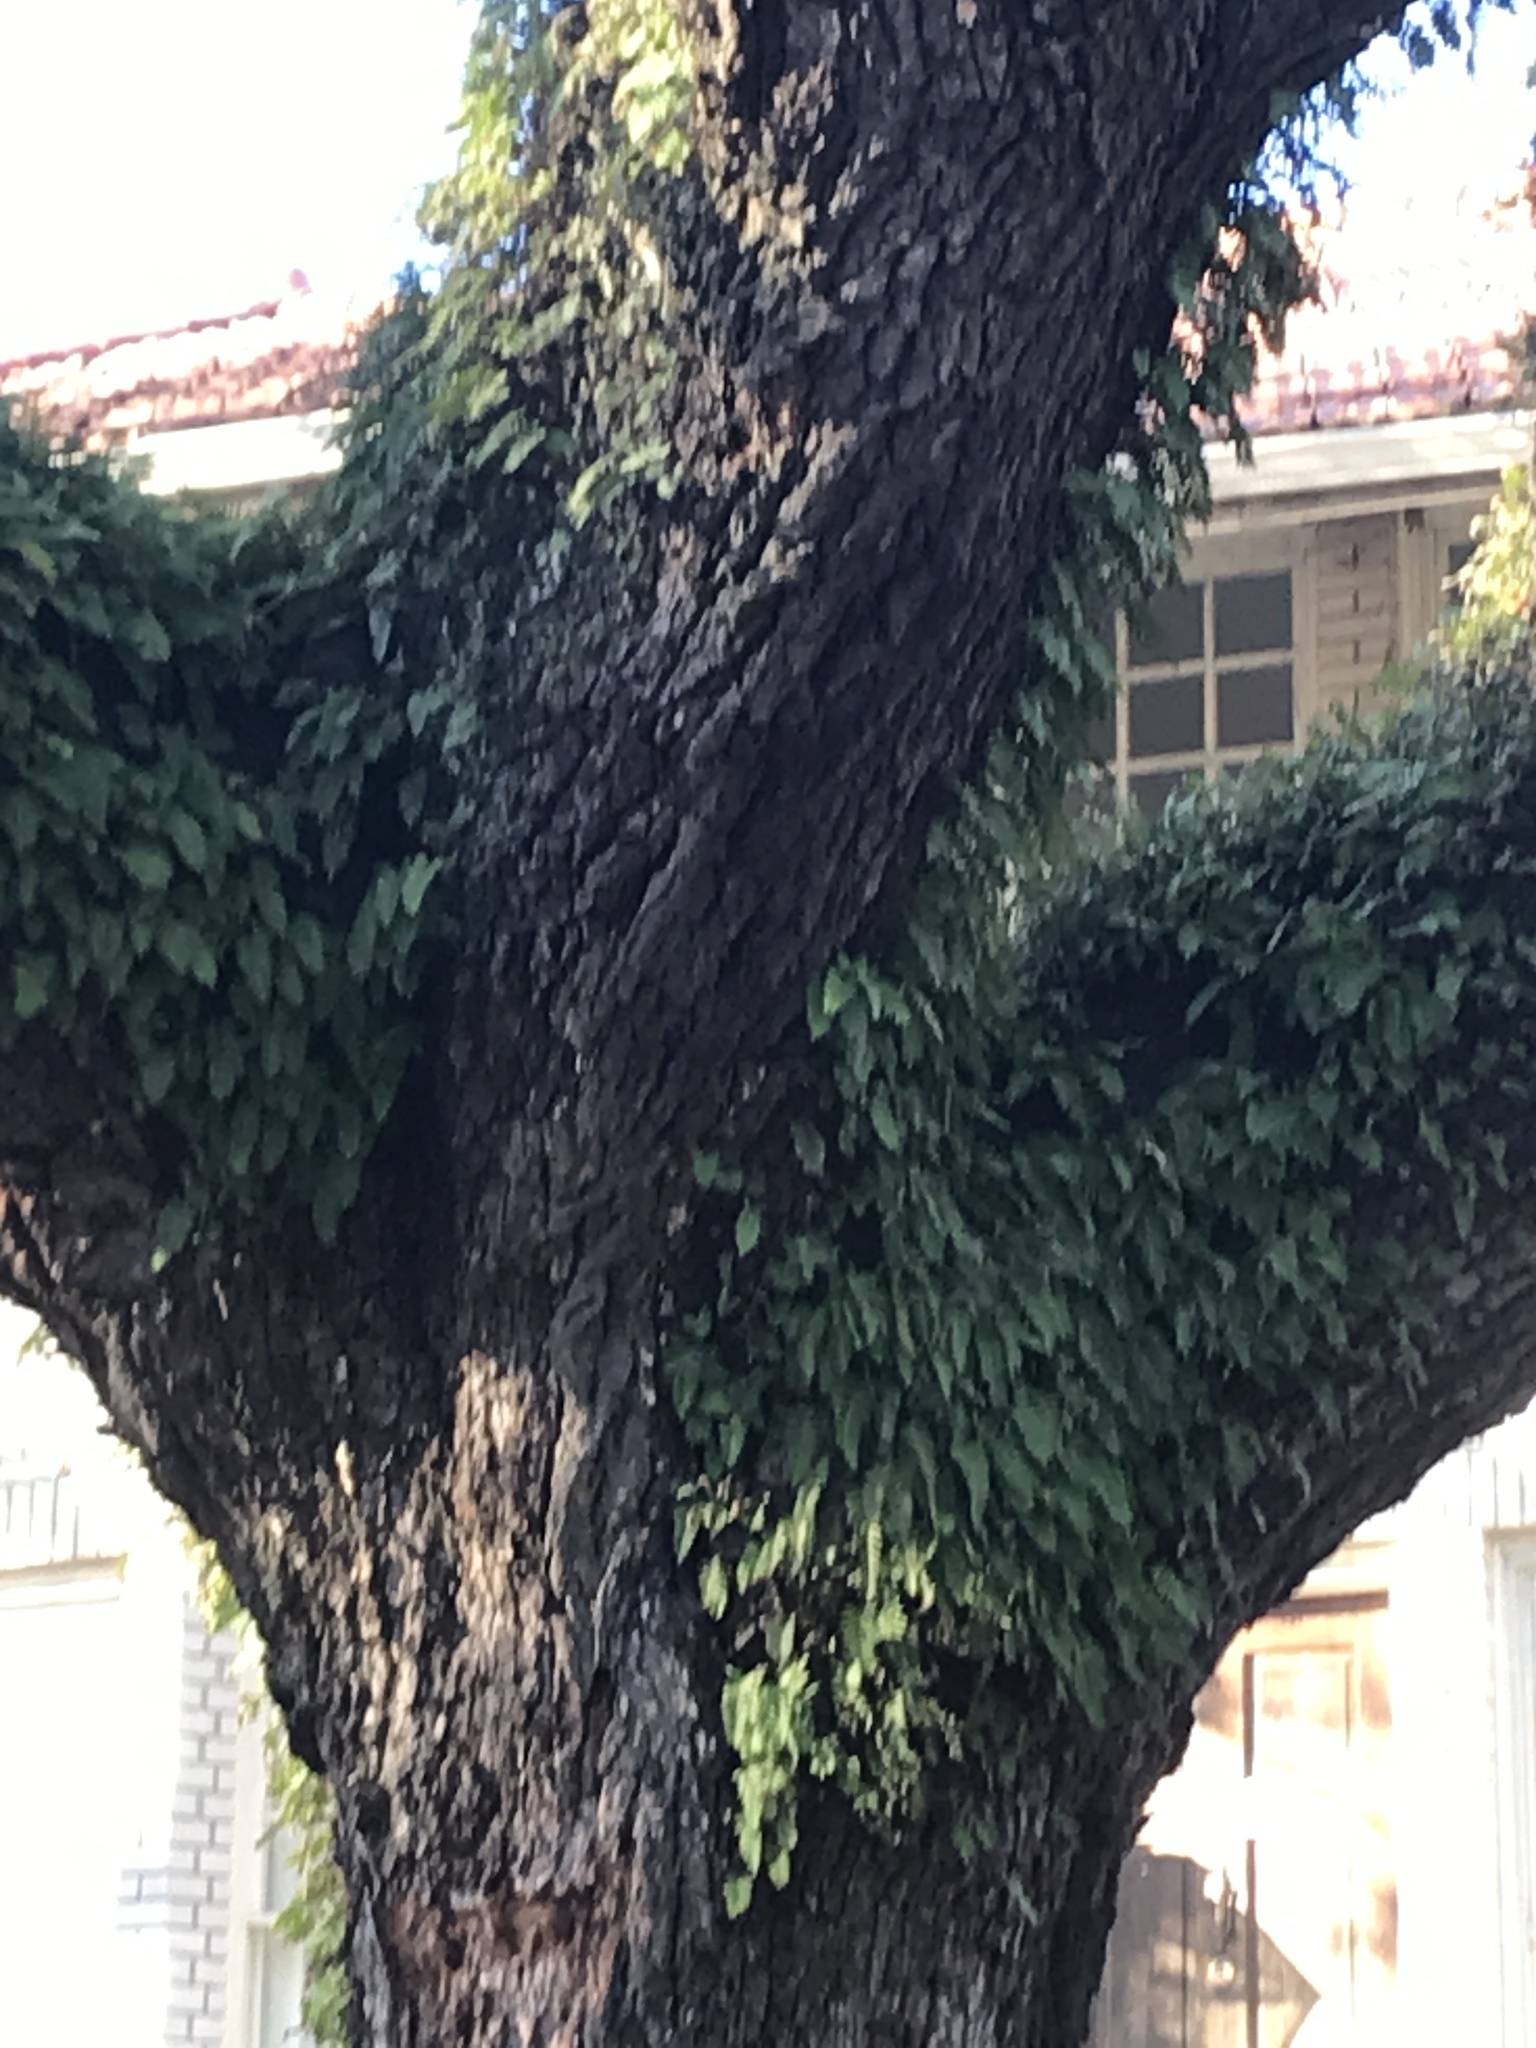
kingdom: Plantae
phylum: Tracheophyta
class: Polypodiopsida
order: Polypodiales
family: Polypodiaceae
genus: Pleopeltis
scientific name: Pleopeltis michauxiana
